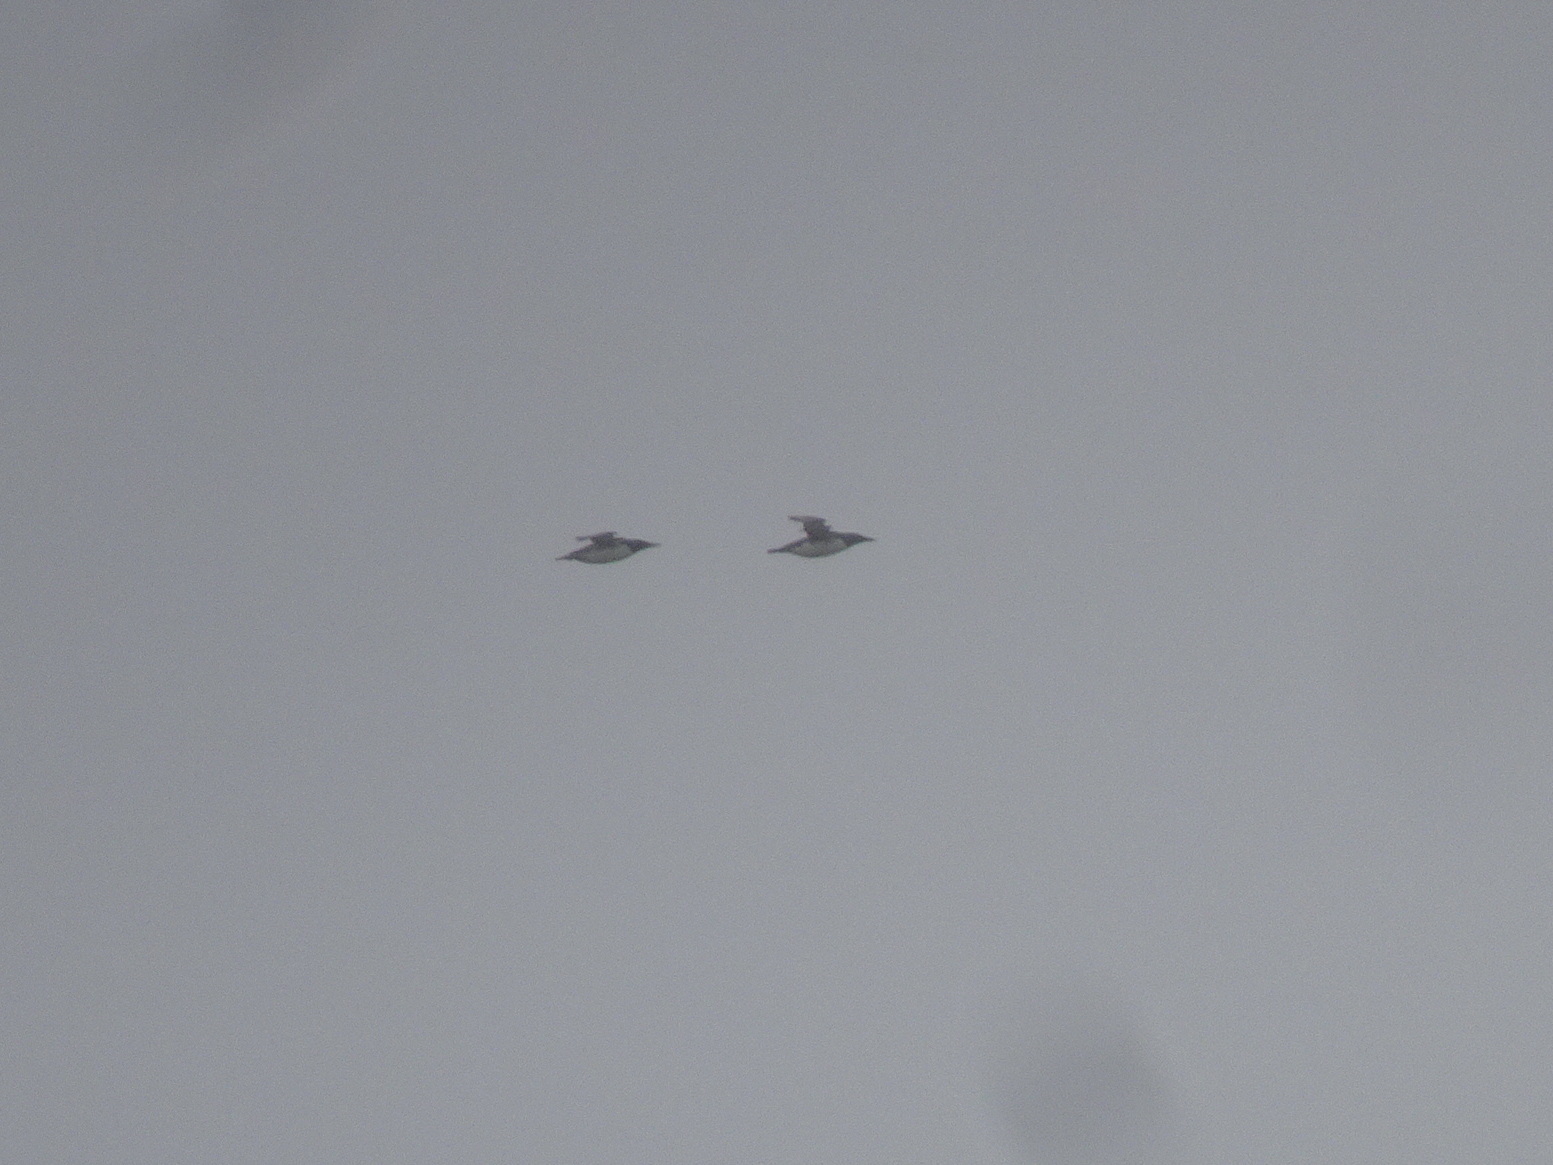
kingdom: Animalia
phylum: Chordata
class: Aves
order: Charadriiformes
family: Alcidae
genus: Uria
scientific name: Uria aalge
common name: Common murre
